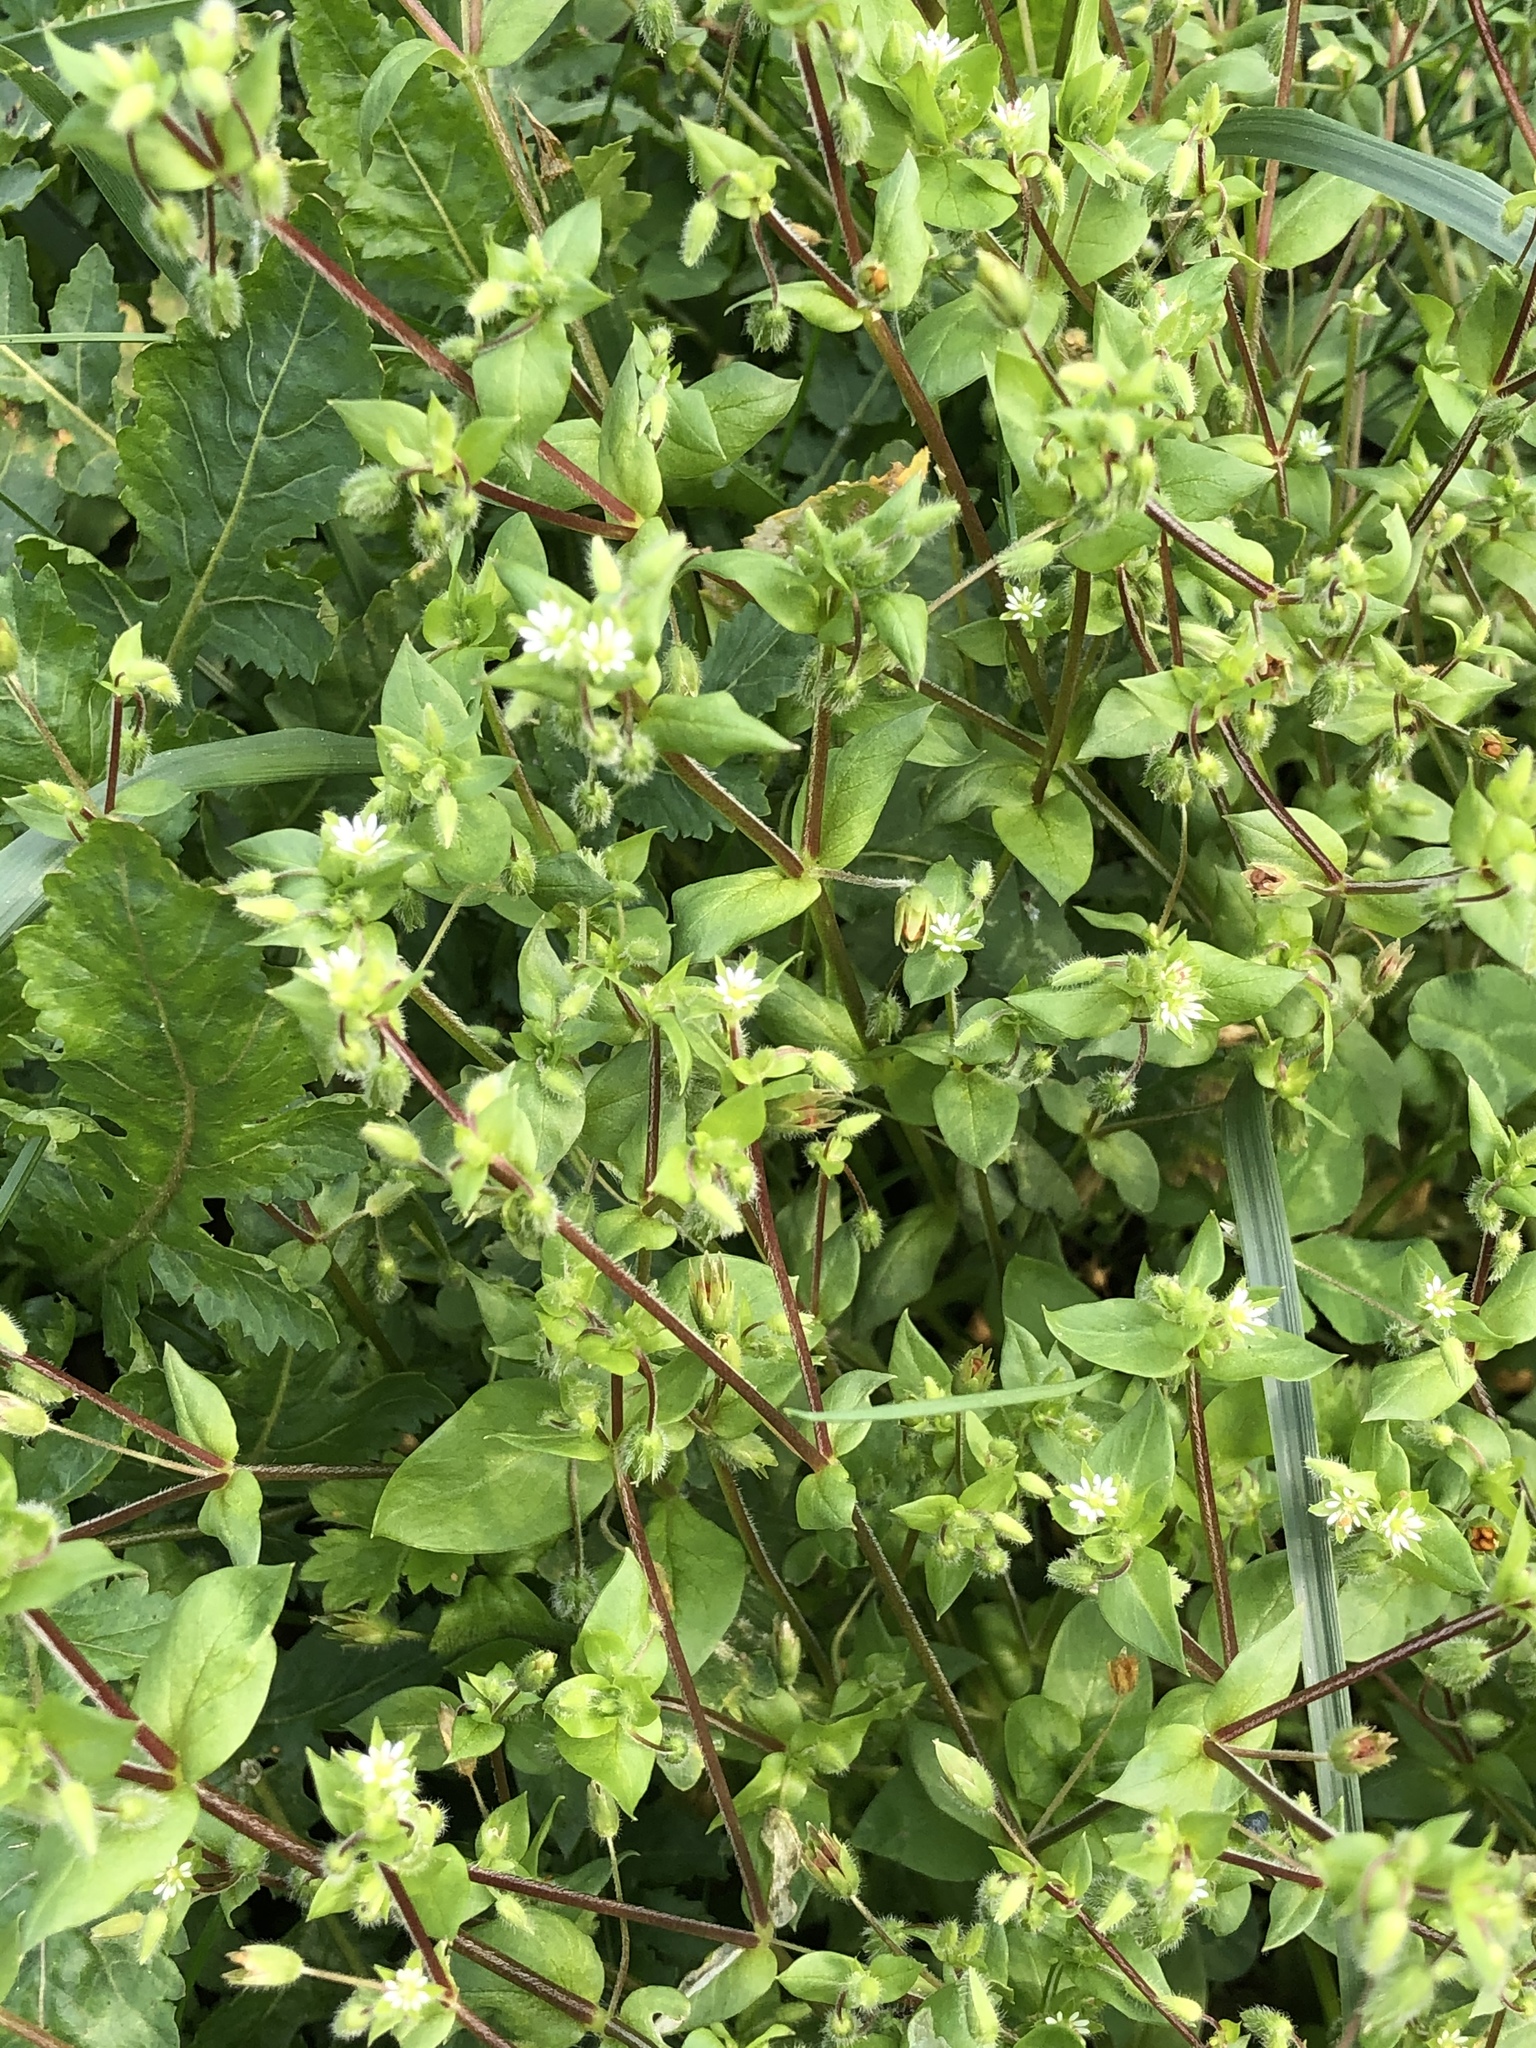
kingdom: Plantae
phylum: Tracheophyta
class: Magnoliopsida
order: Caryophyllales
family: Caryophyllaceae
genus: Stellaria
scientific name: Stellaria media
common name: Common chickweed
